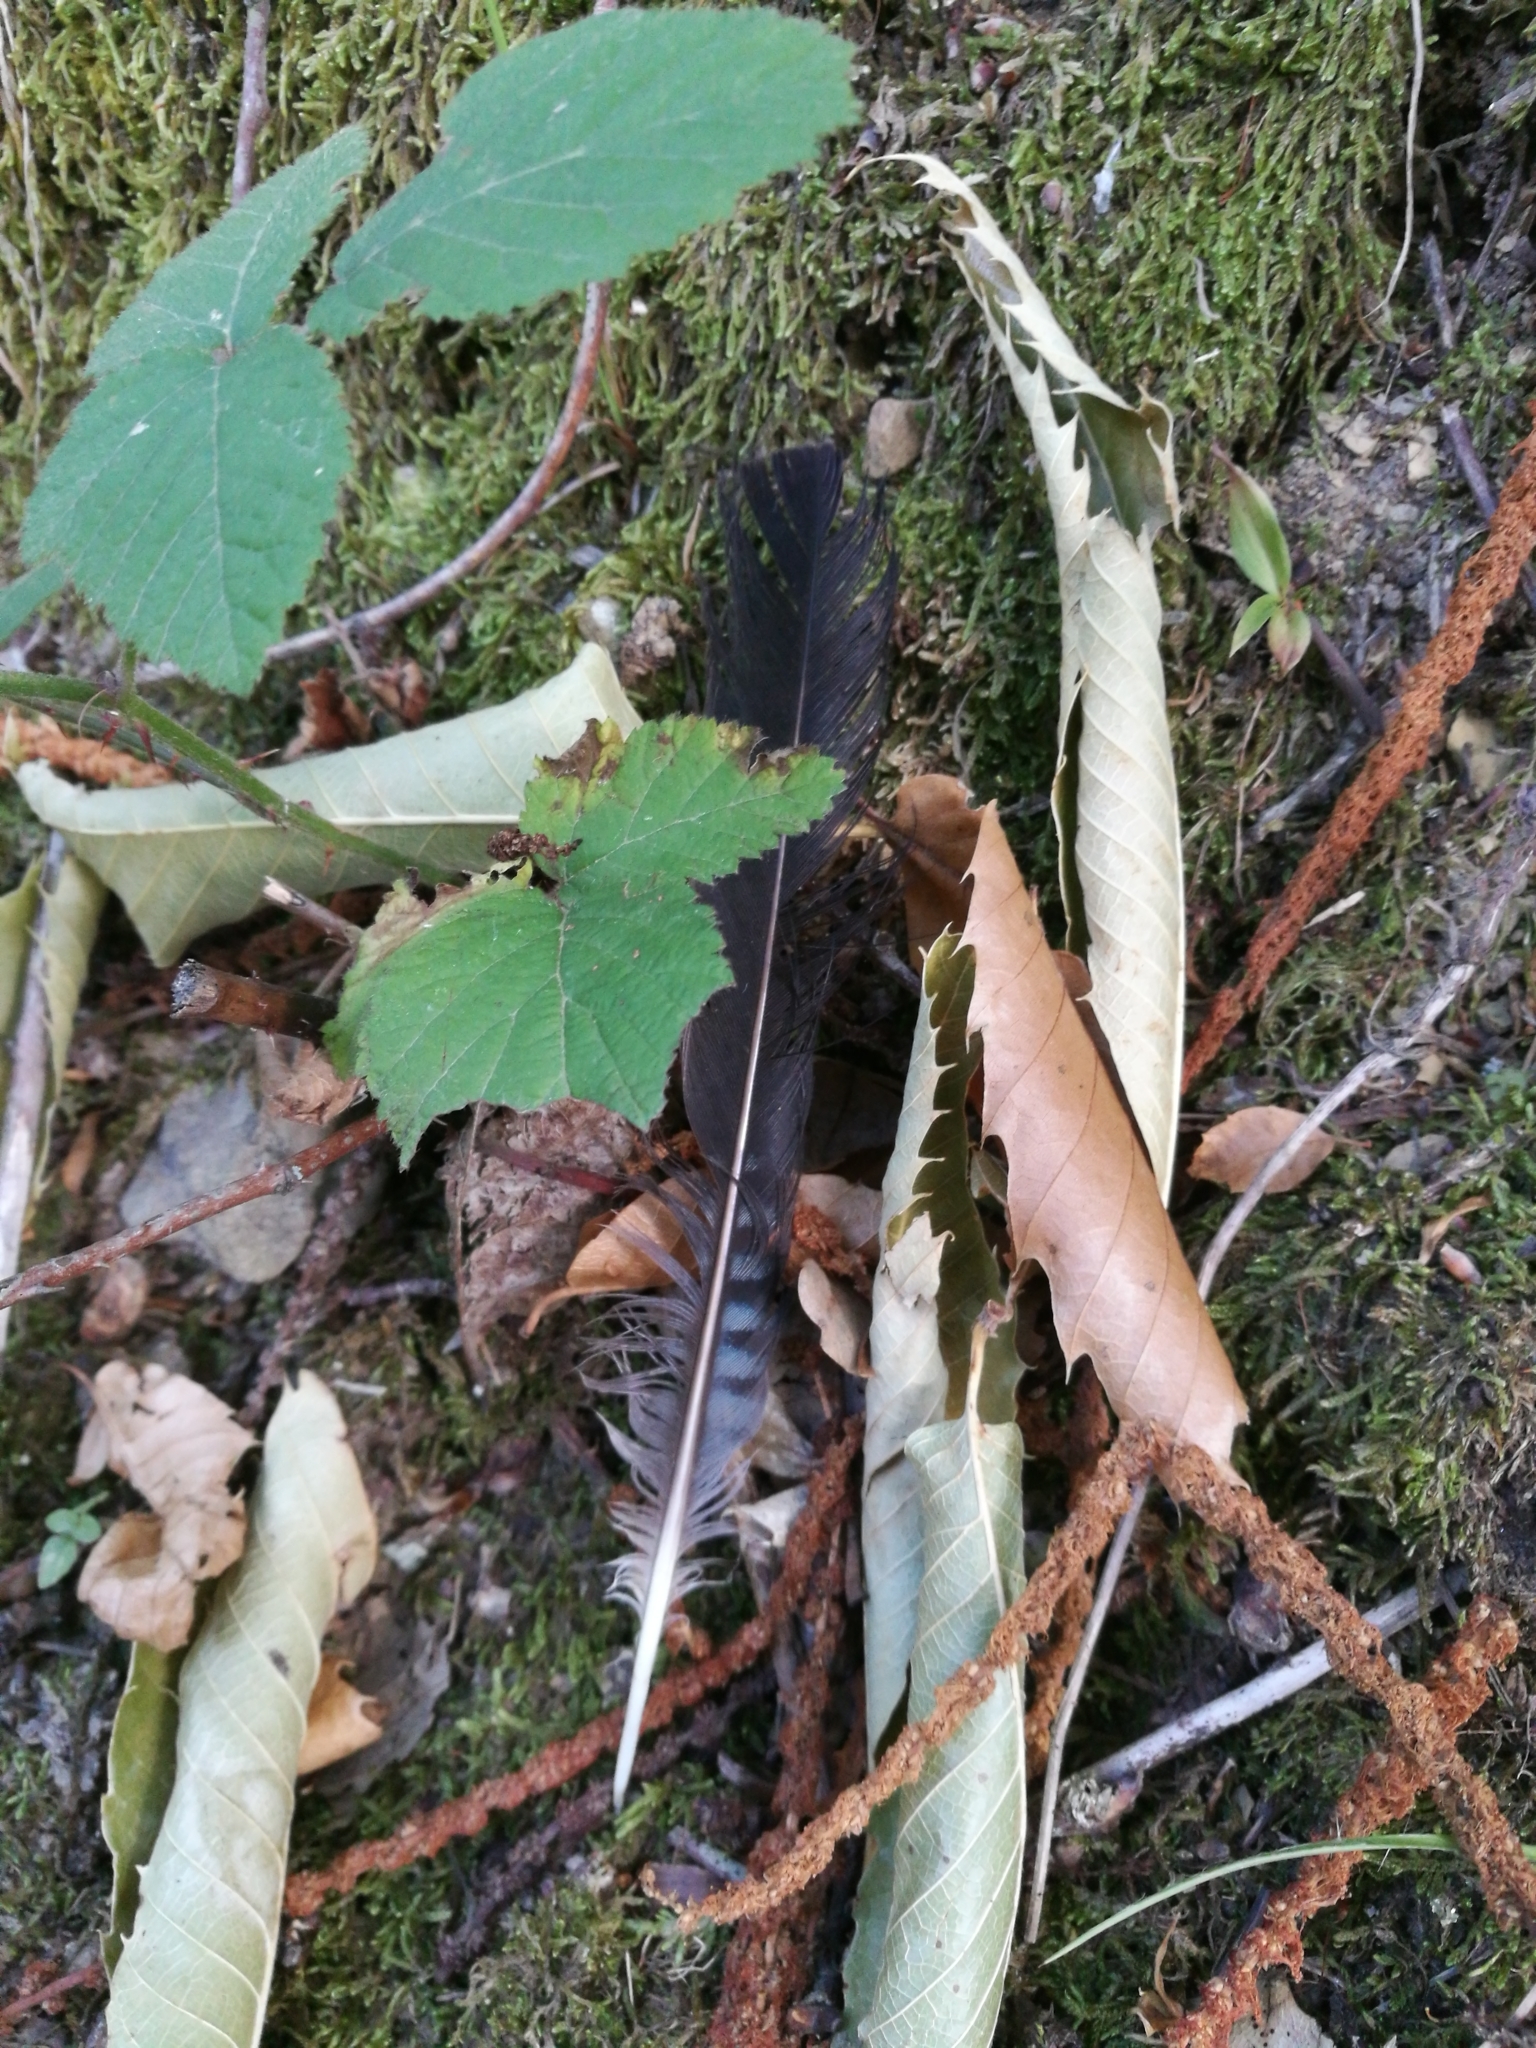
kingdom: Animalia
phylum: Chordata
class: Aves
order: Passeriformes
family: Corvidae
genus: Garrulus
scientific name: Garrulus glandarius
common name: Eurasian jay
